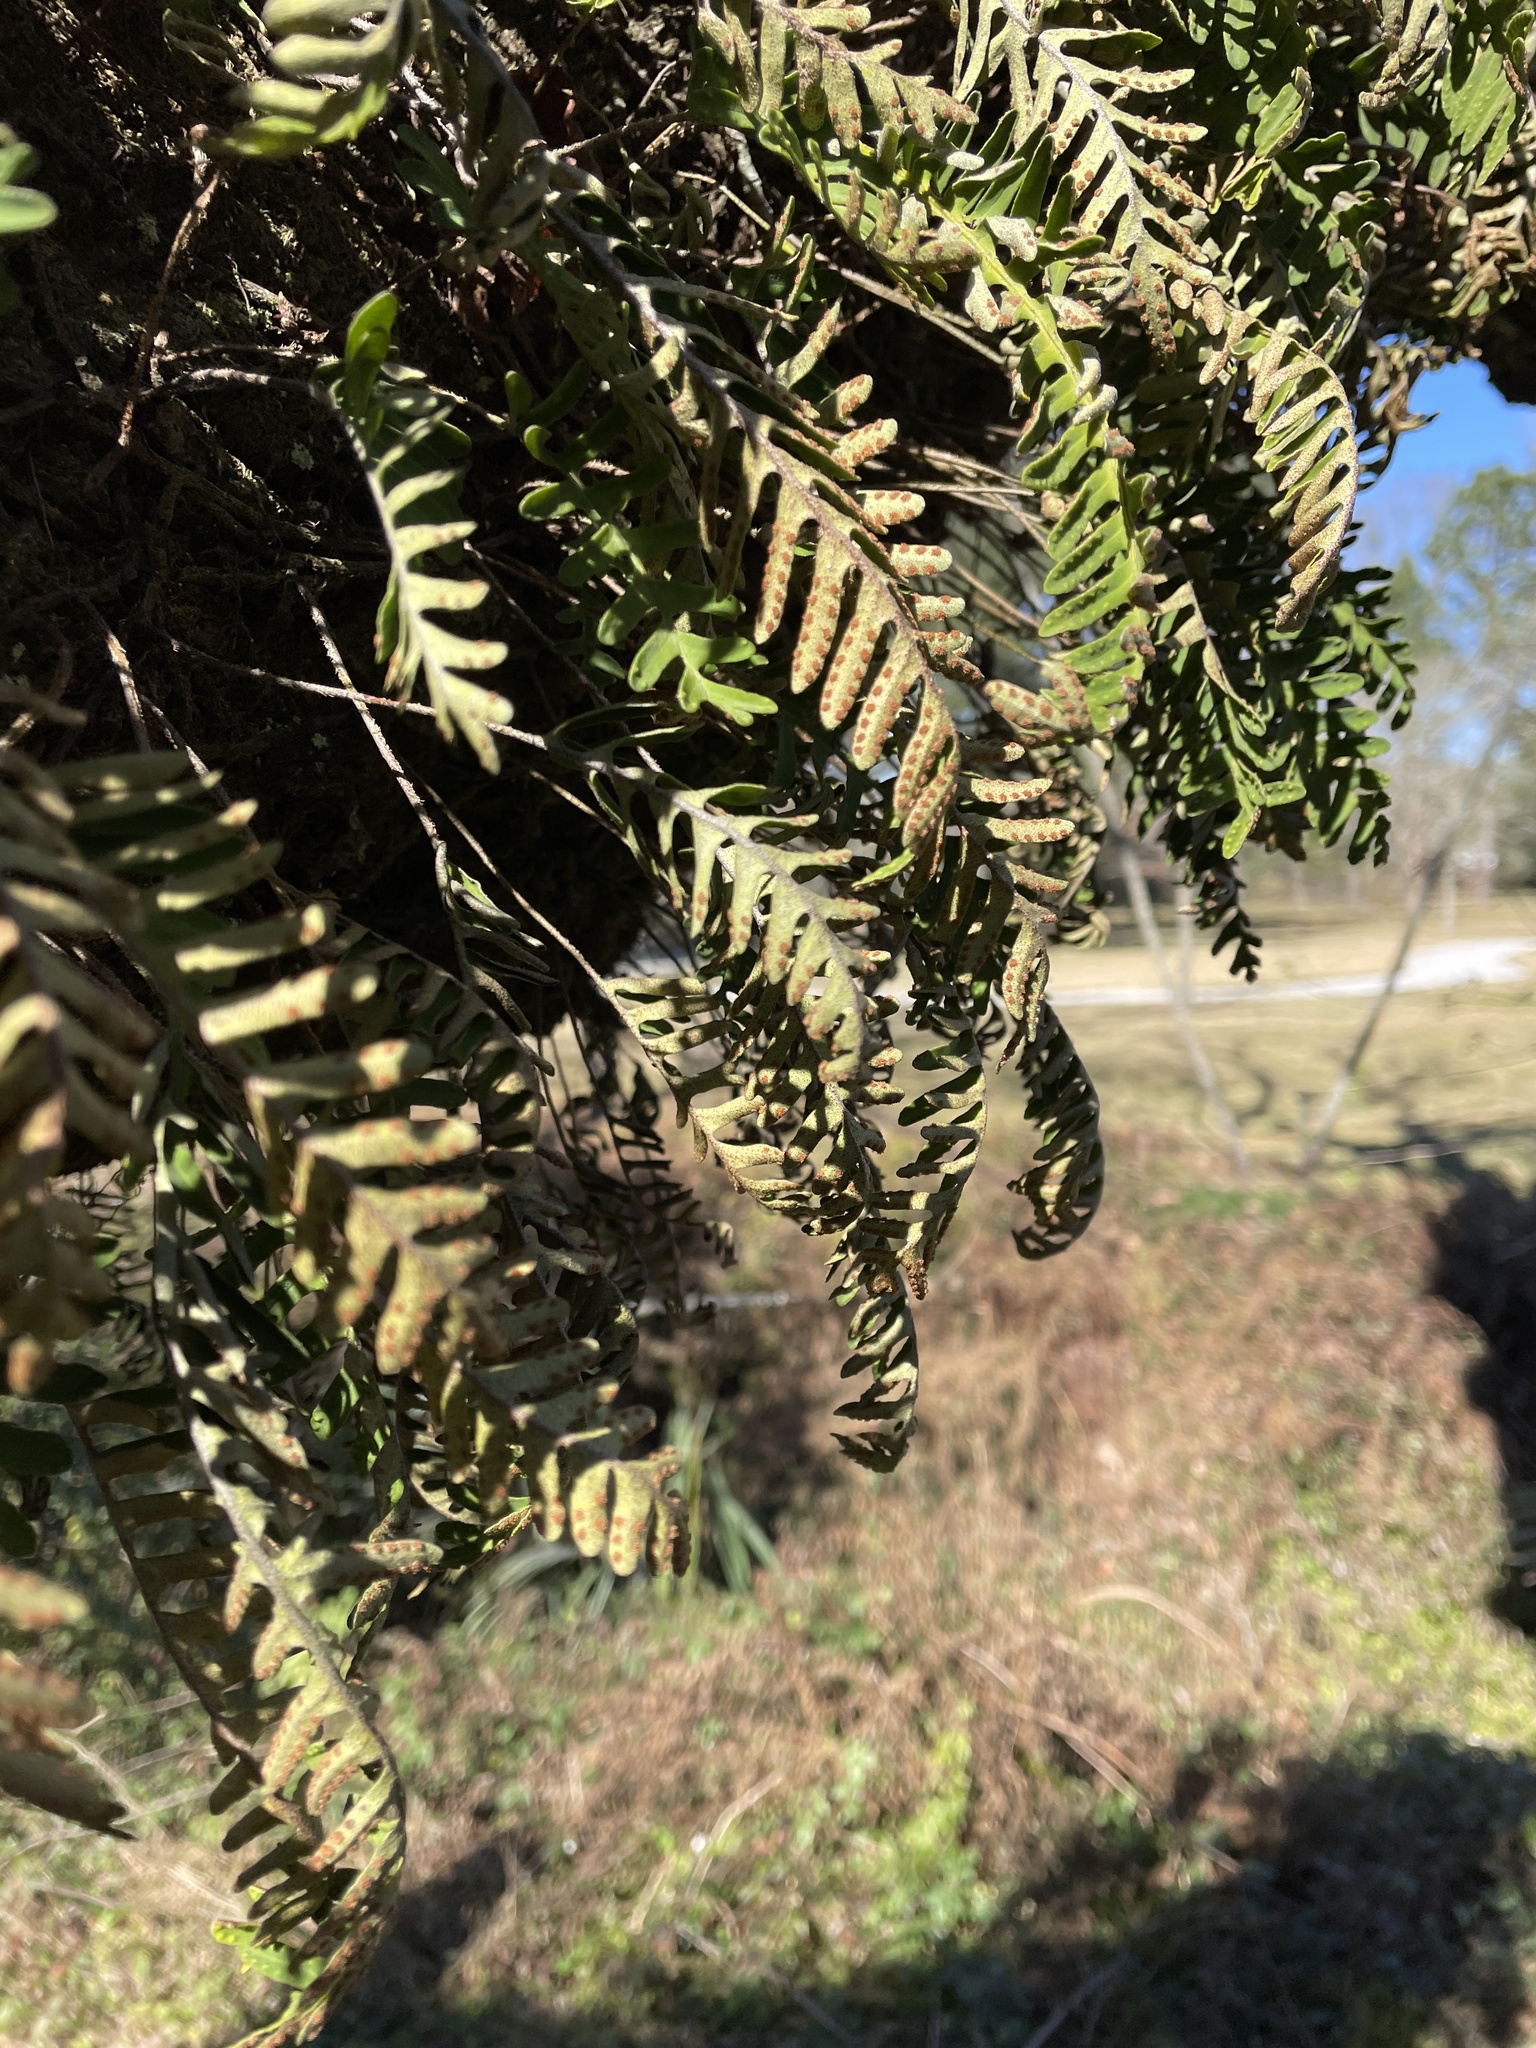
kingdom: Plantae
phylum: Tracheophyta
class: Polypodiopsida
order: Polypodiales
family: Polypodiaceae
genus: Pleopeltis
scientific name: Pleopeltis michauxiana
